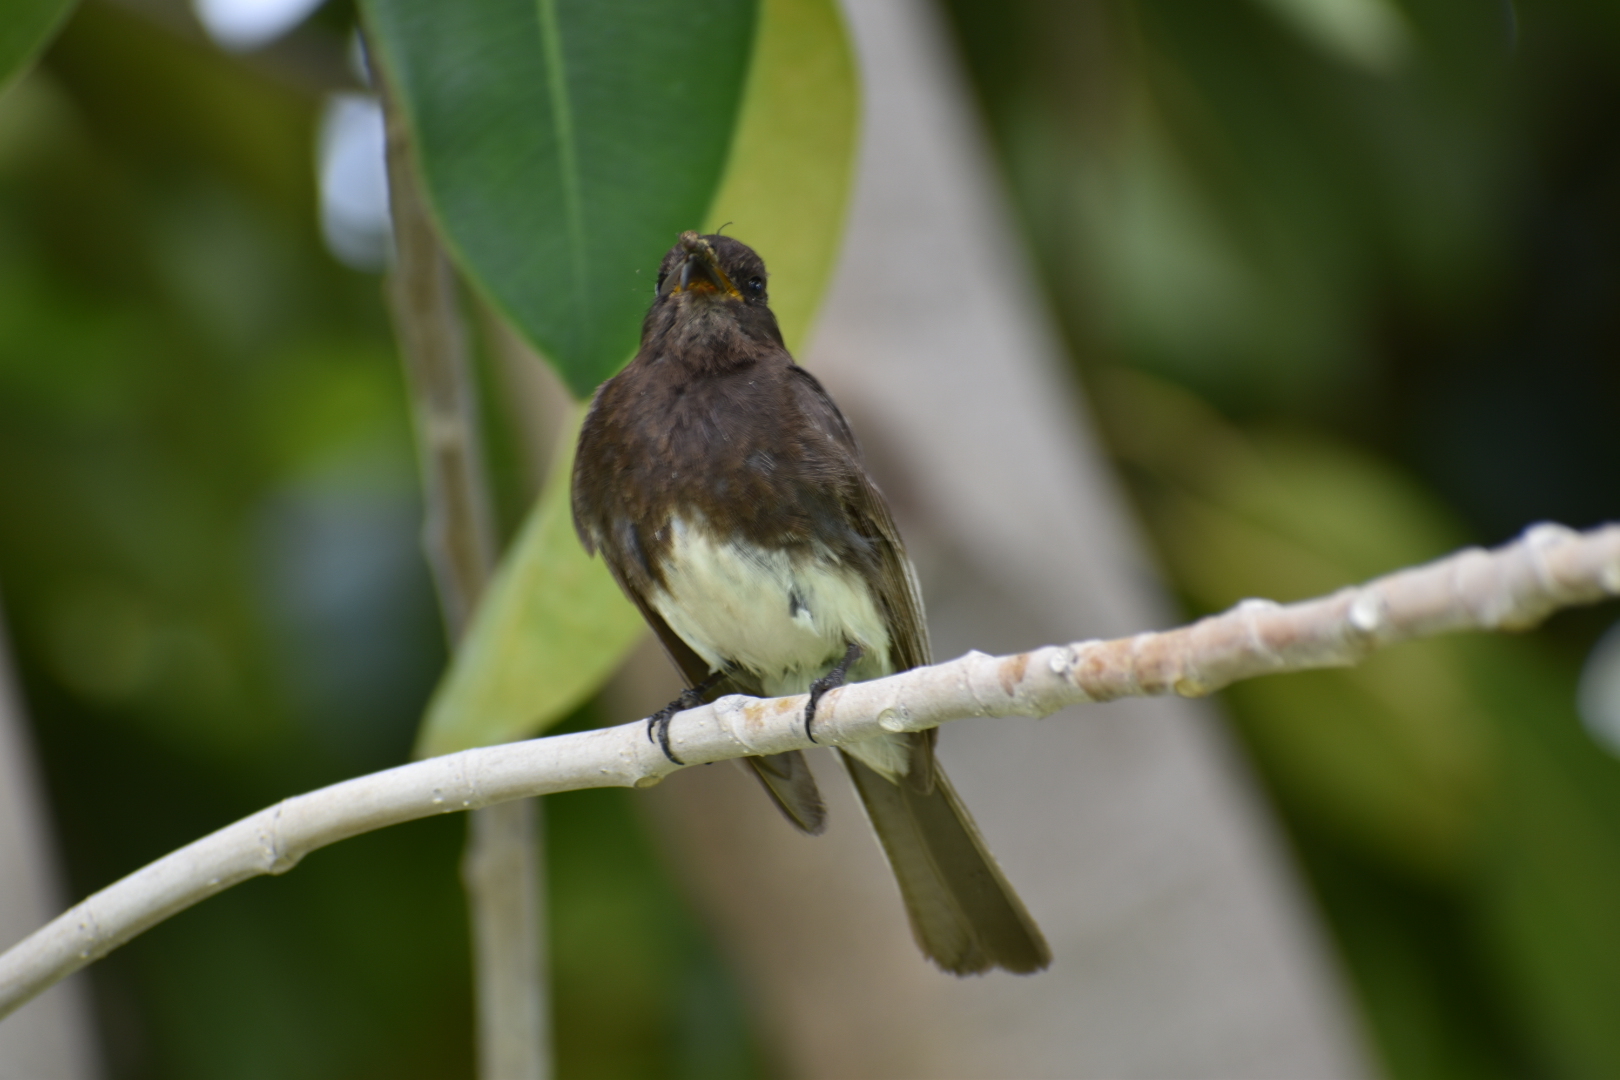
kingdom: Animalia
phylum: Chordata
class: Aves
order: Passeriformes
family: Tyrannidae
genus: Sayornis
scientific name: Sayornis nigricans
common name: Black phoebe
